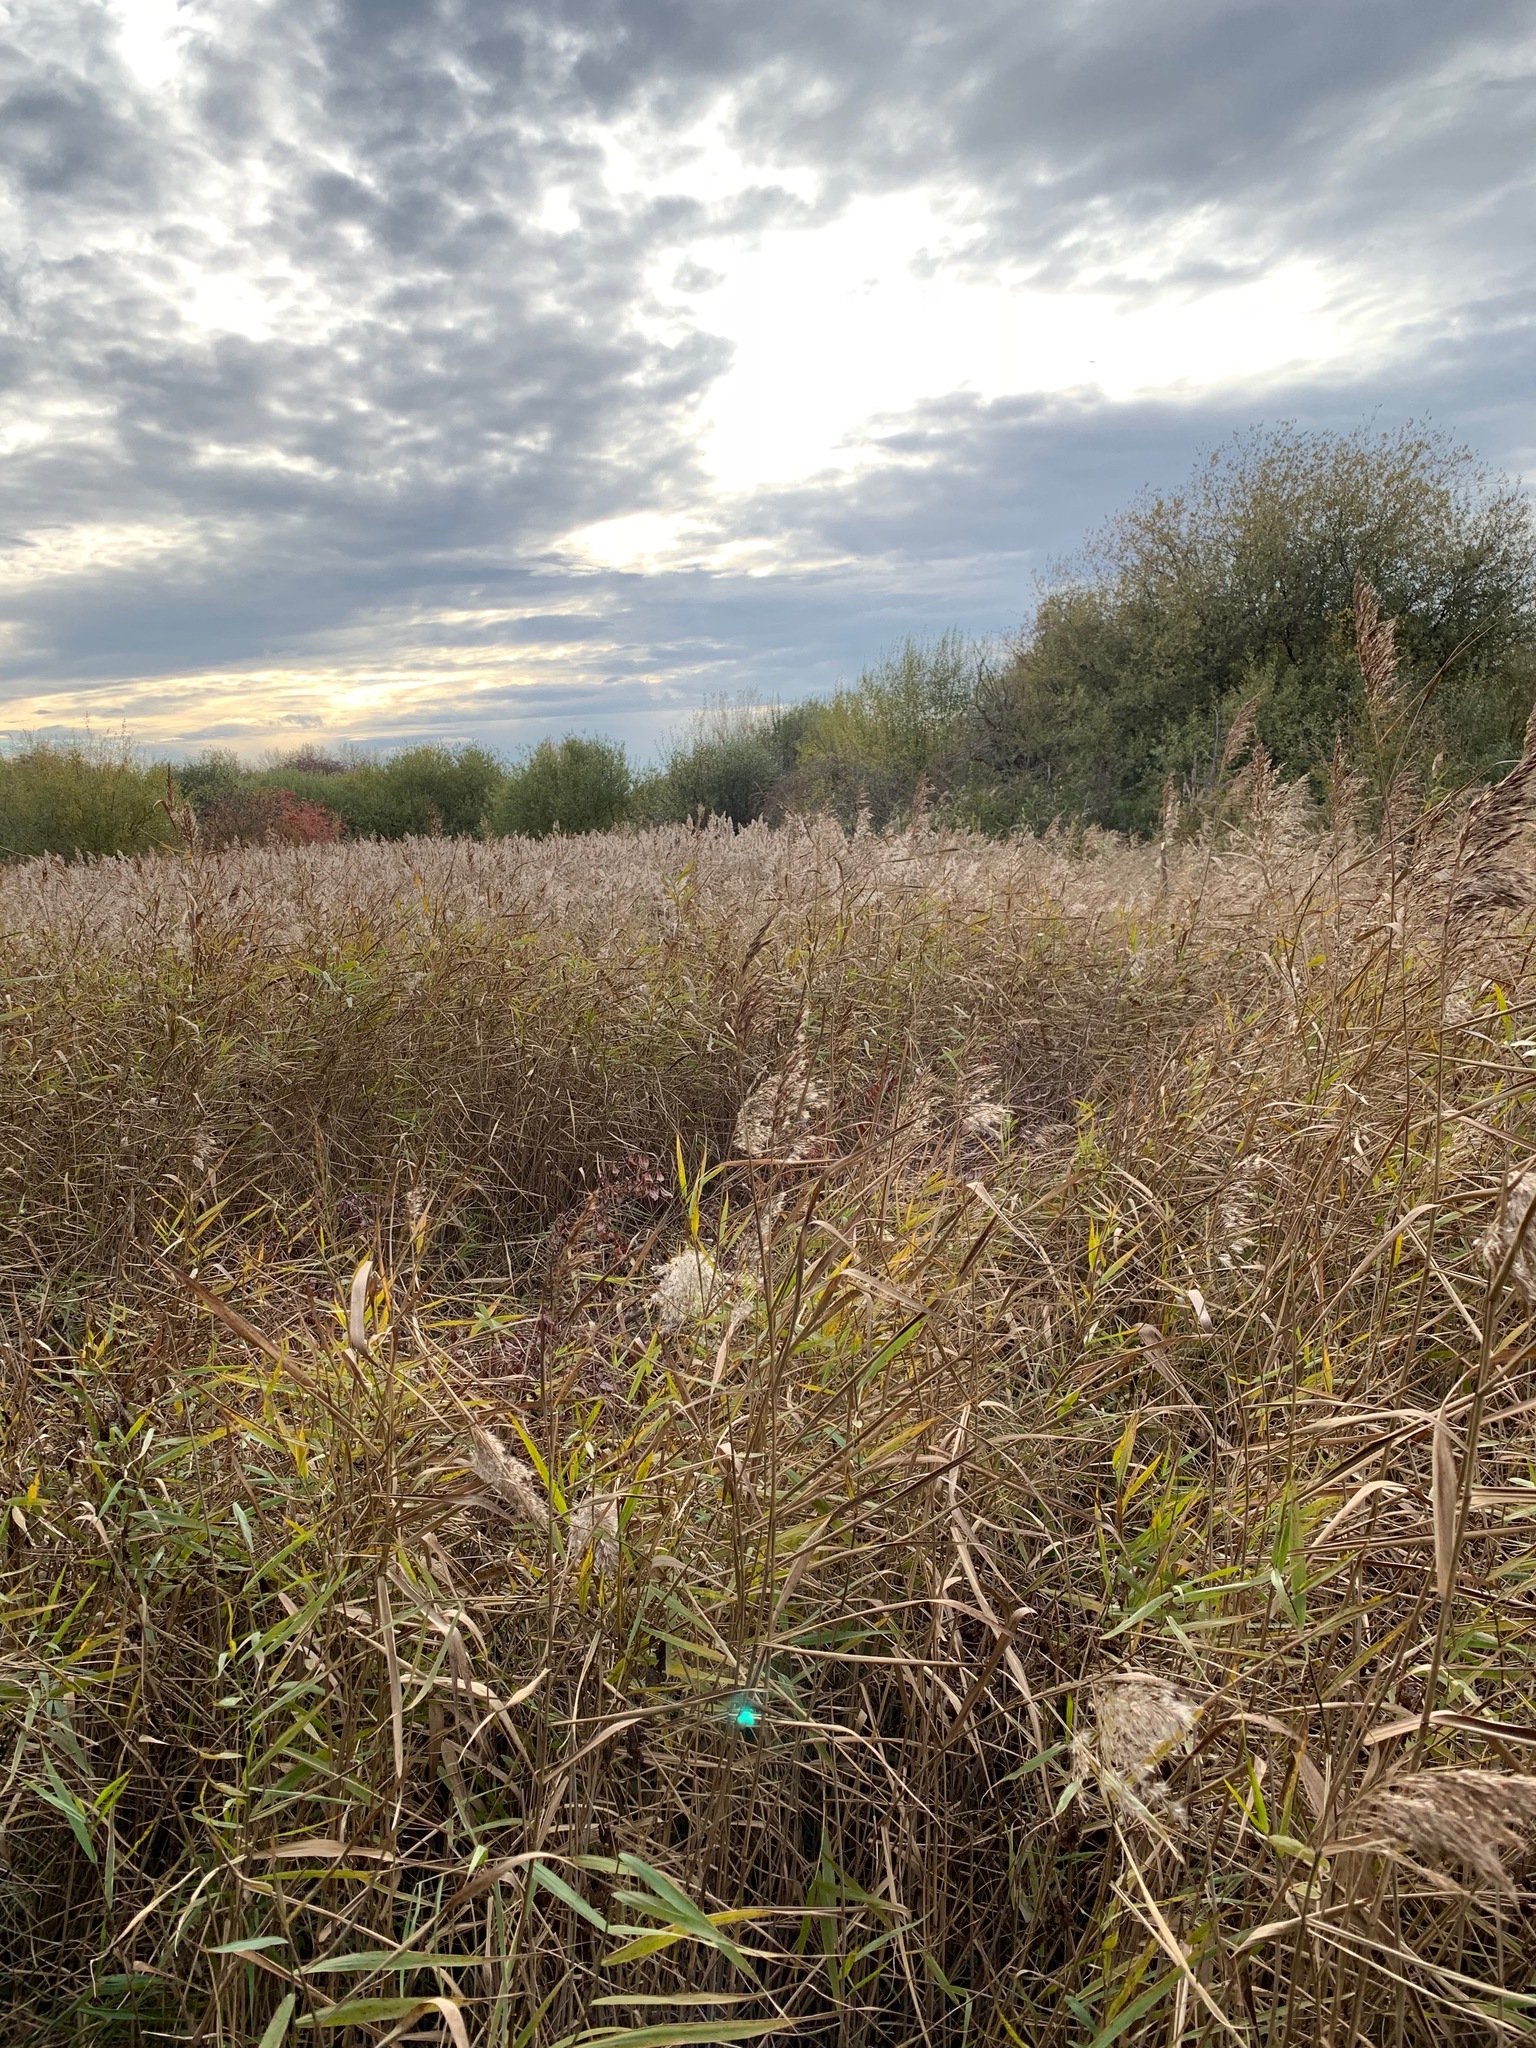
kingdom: Plantae
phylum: Tracheophyta
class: Liliopsida
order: Poales
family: Poaceae
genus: Phragmites
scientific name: Phragmites australis
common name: Common reed
